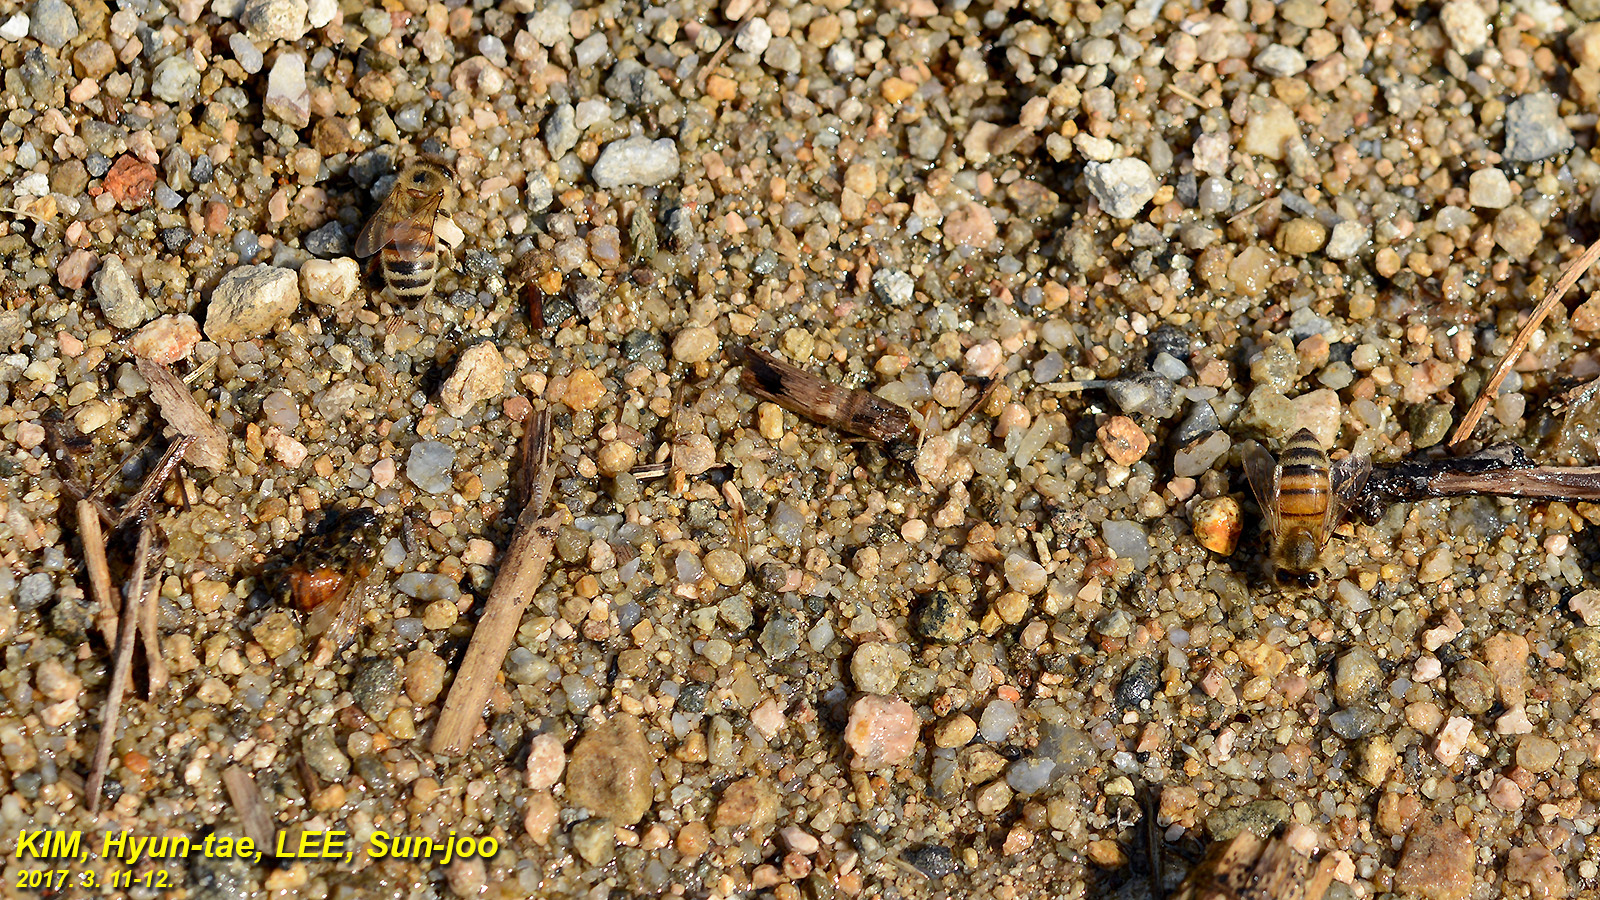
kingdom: Animalia
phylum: Arthropoda
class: Insecta
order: Hymenoptera
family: Apidae
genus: Apis
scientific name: Apis mellifera
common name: Honey bee
